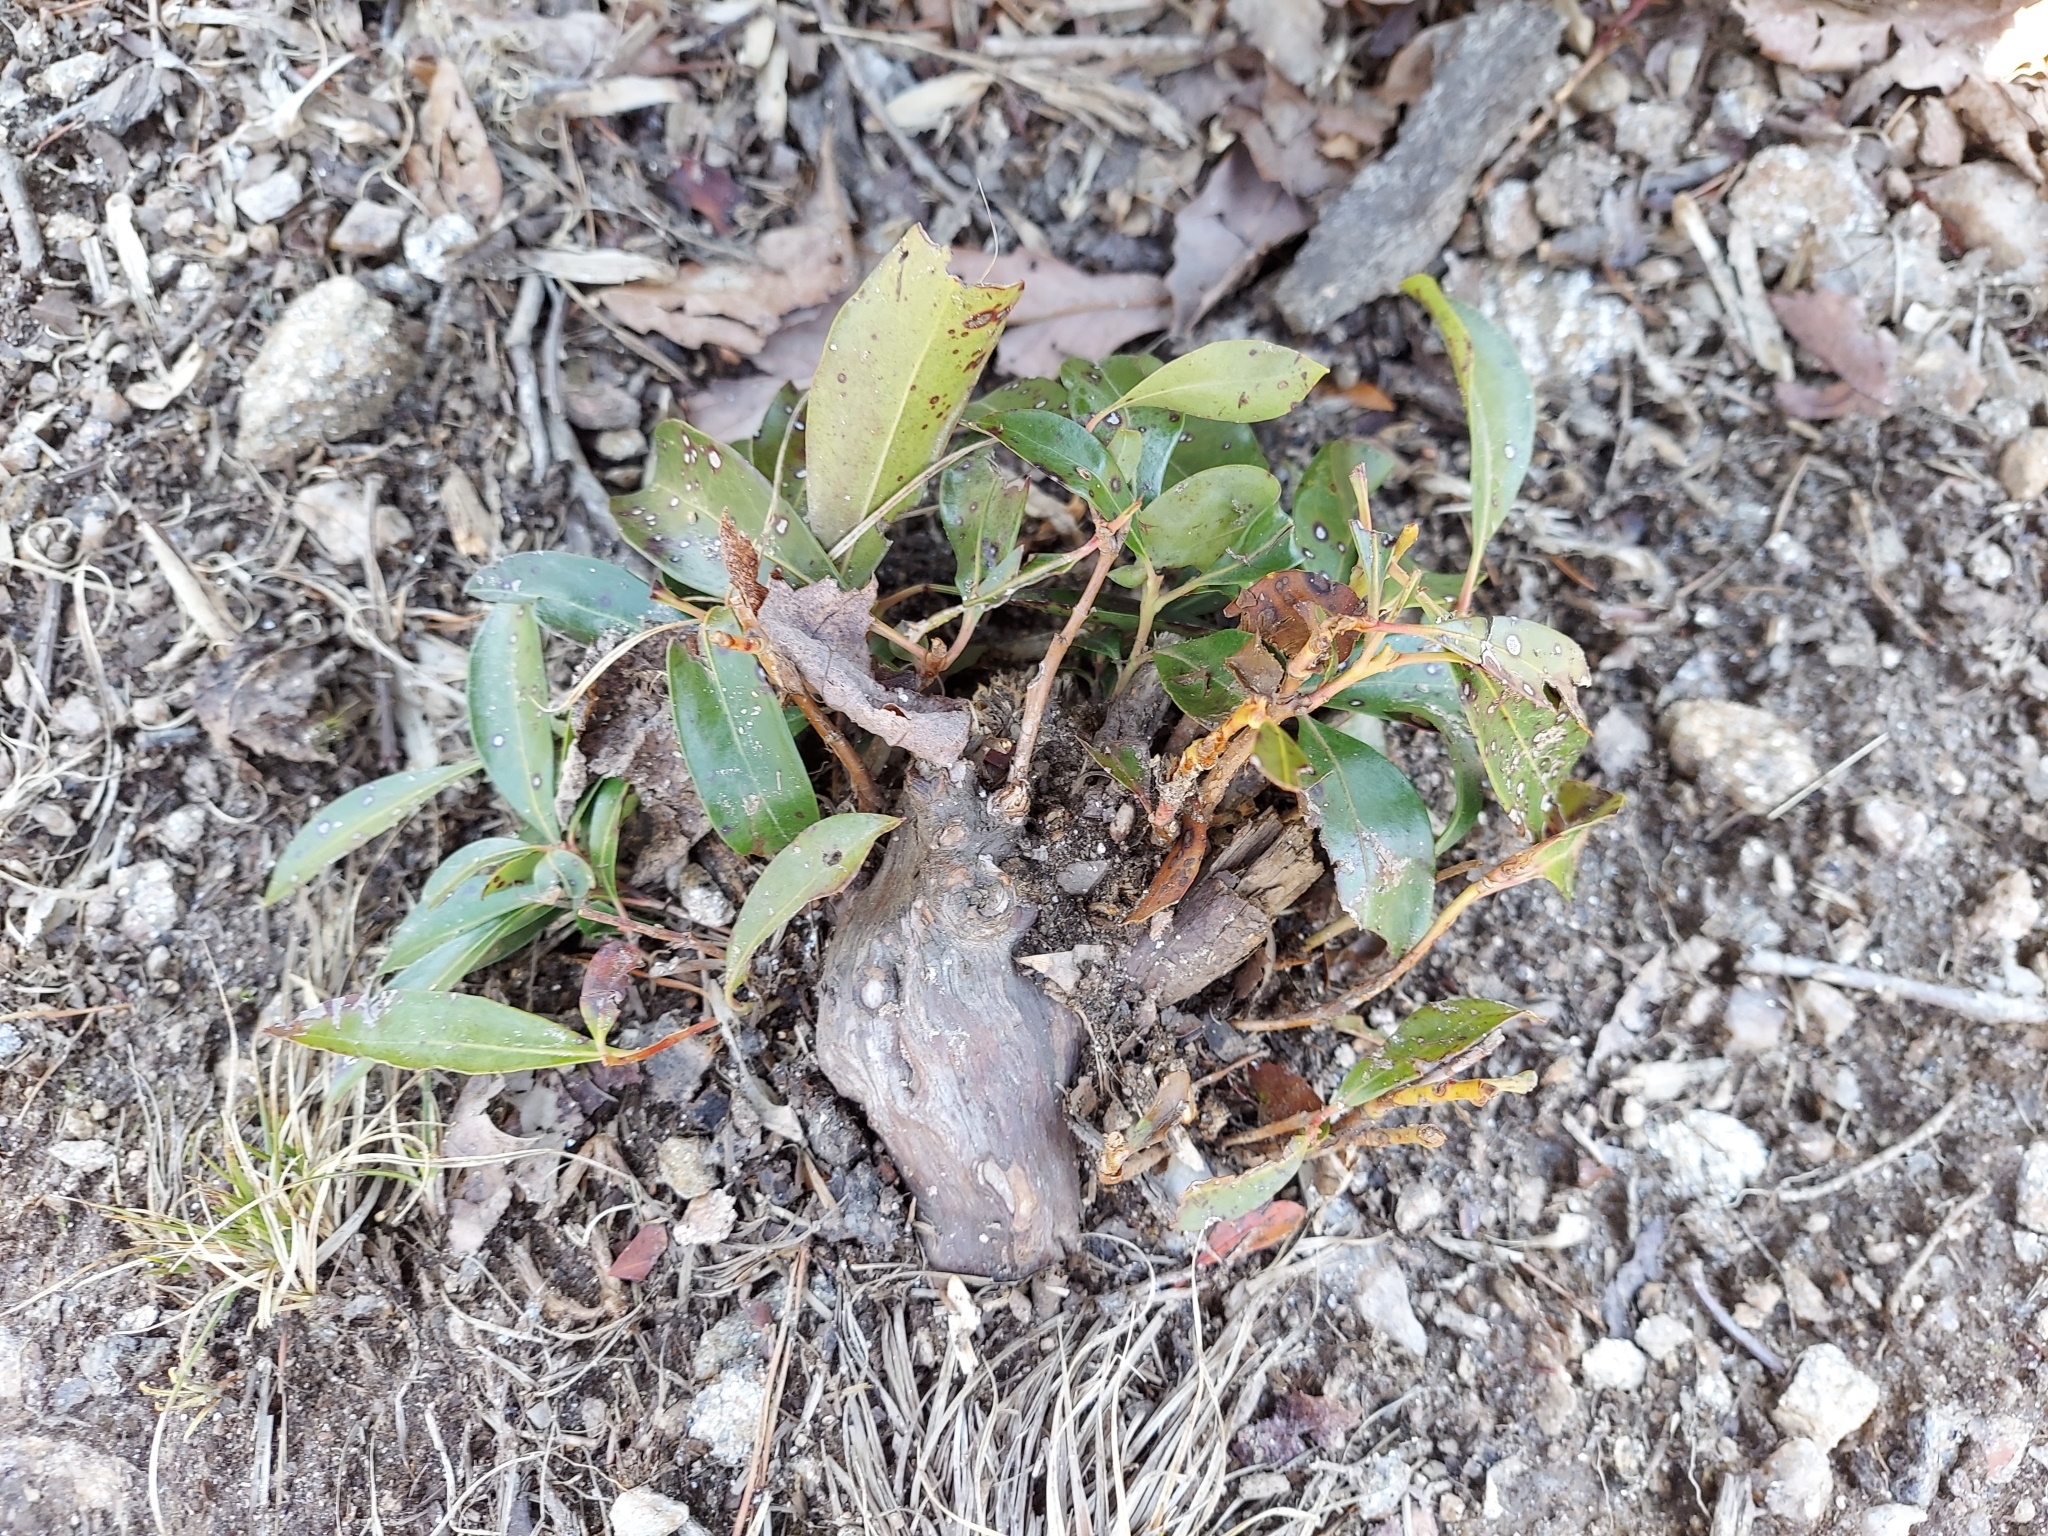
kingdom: Plantae
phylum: Tracheophyta
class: Magnoliopsida
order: Ericales
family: Ericaceae
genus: Kalmia
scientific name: Kalmia latifolia
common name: Mountain-laurel
